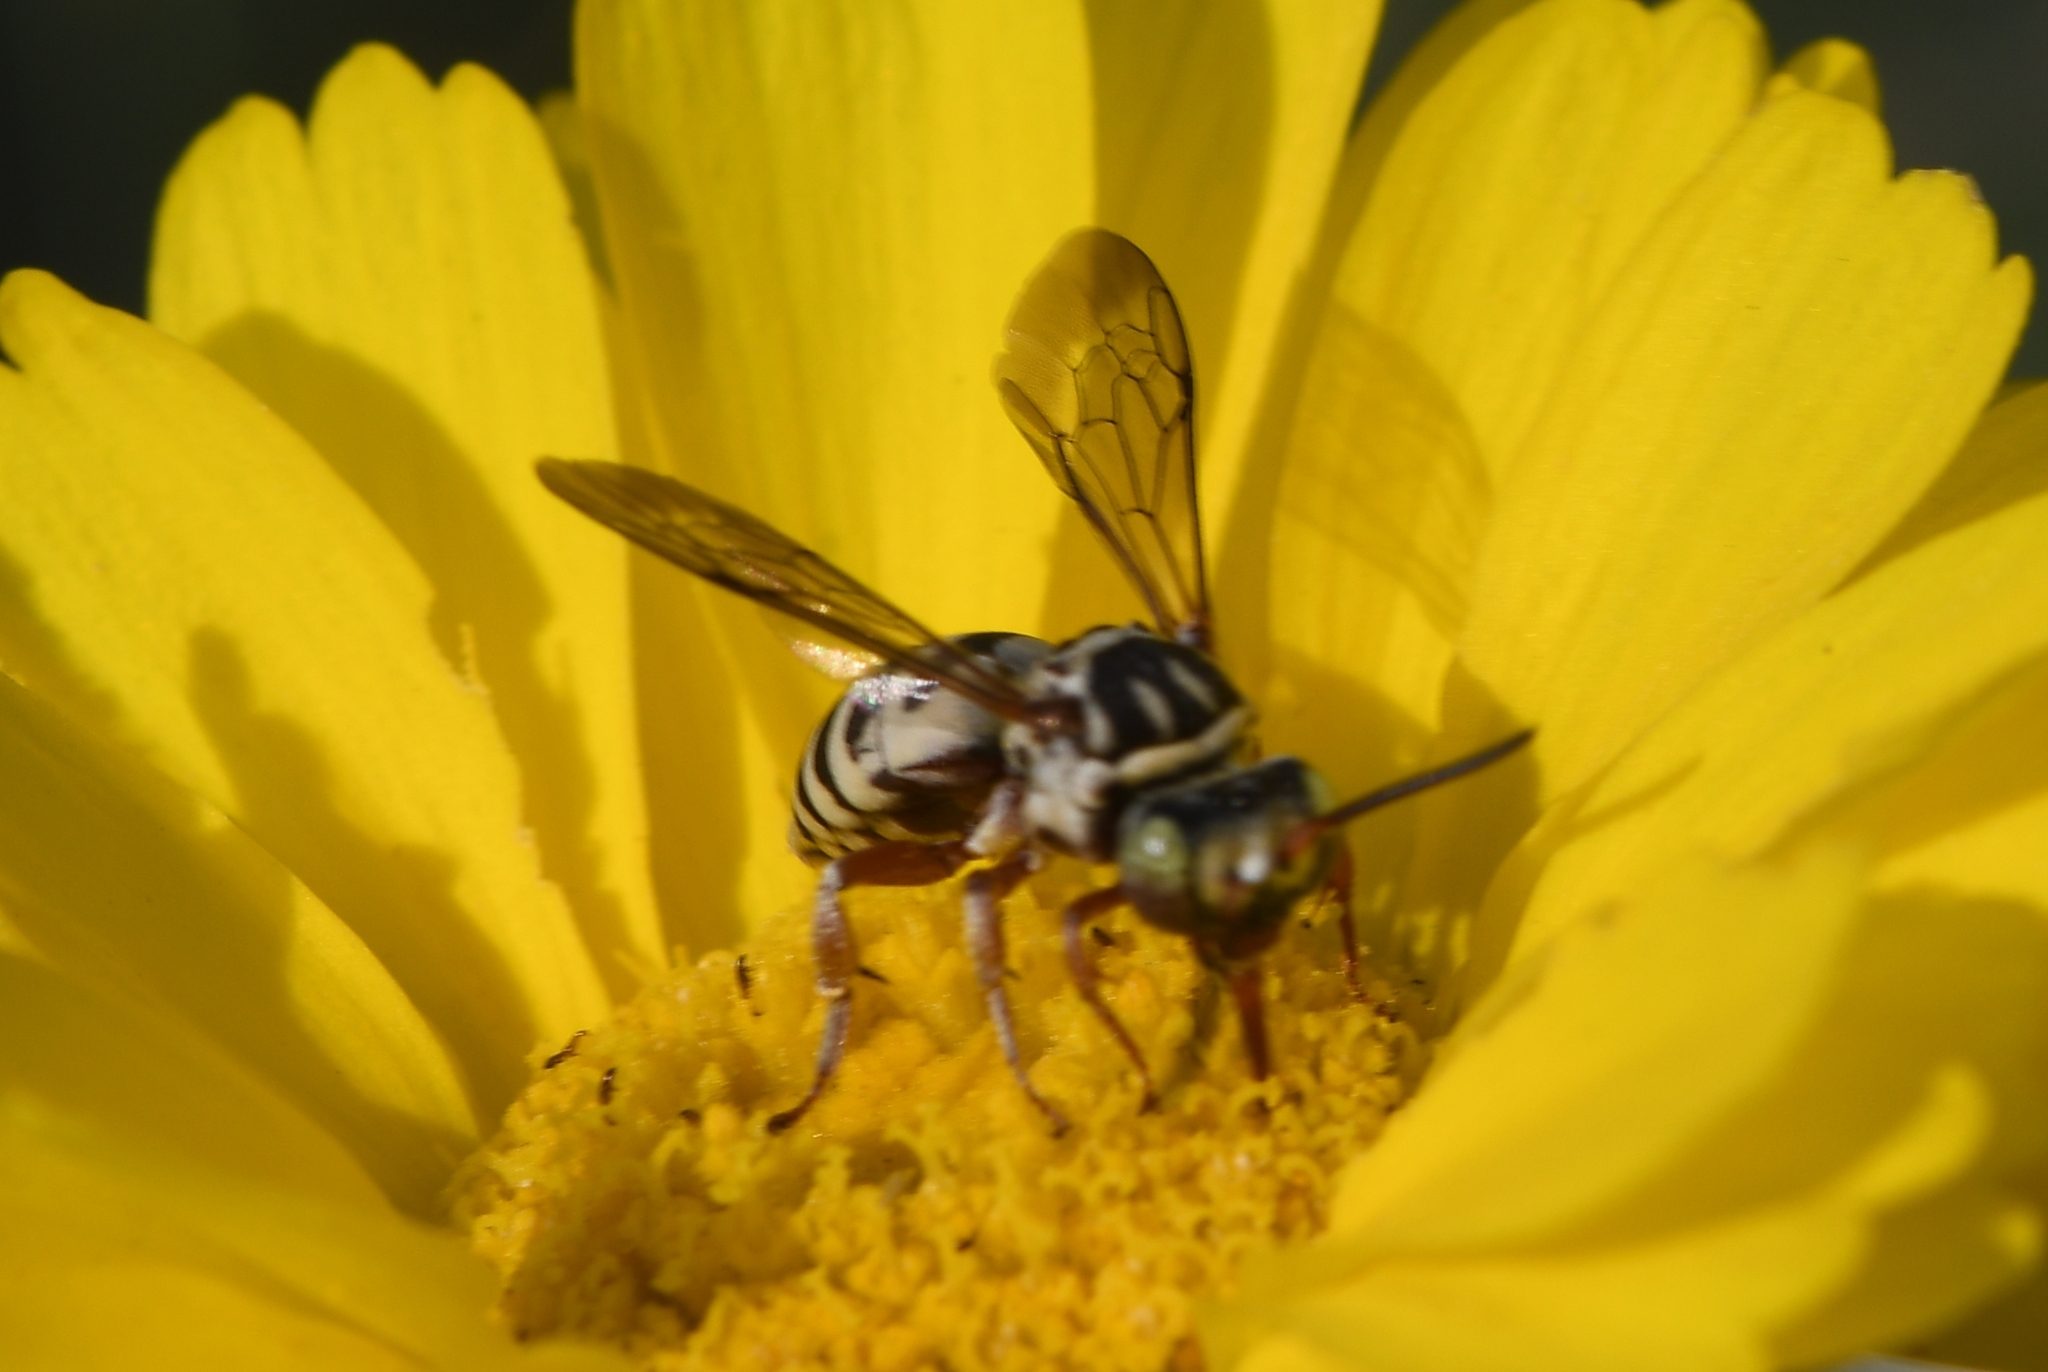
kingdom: Animalia
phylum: Arthropoda
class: Insecta
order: Hymenoptera
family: Apidae
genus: Triepeolus
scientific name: Triepeolus
